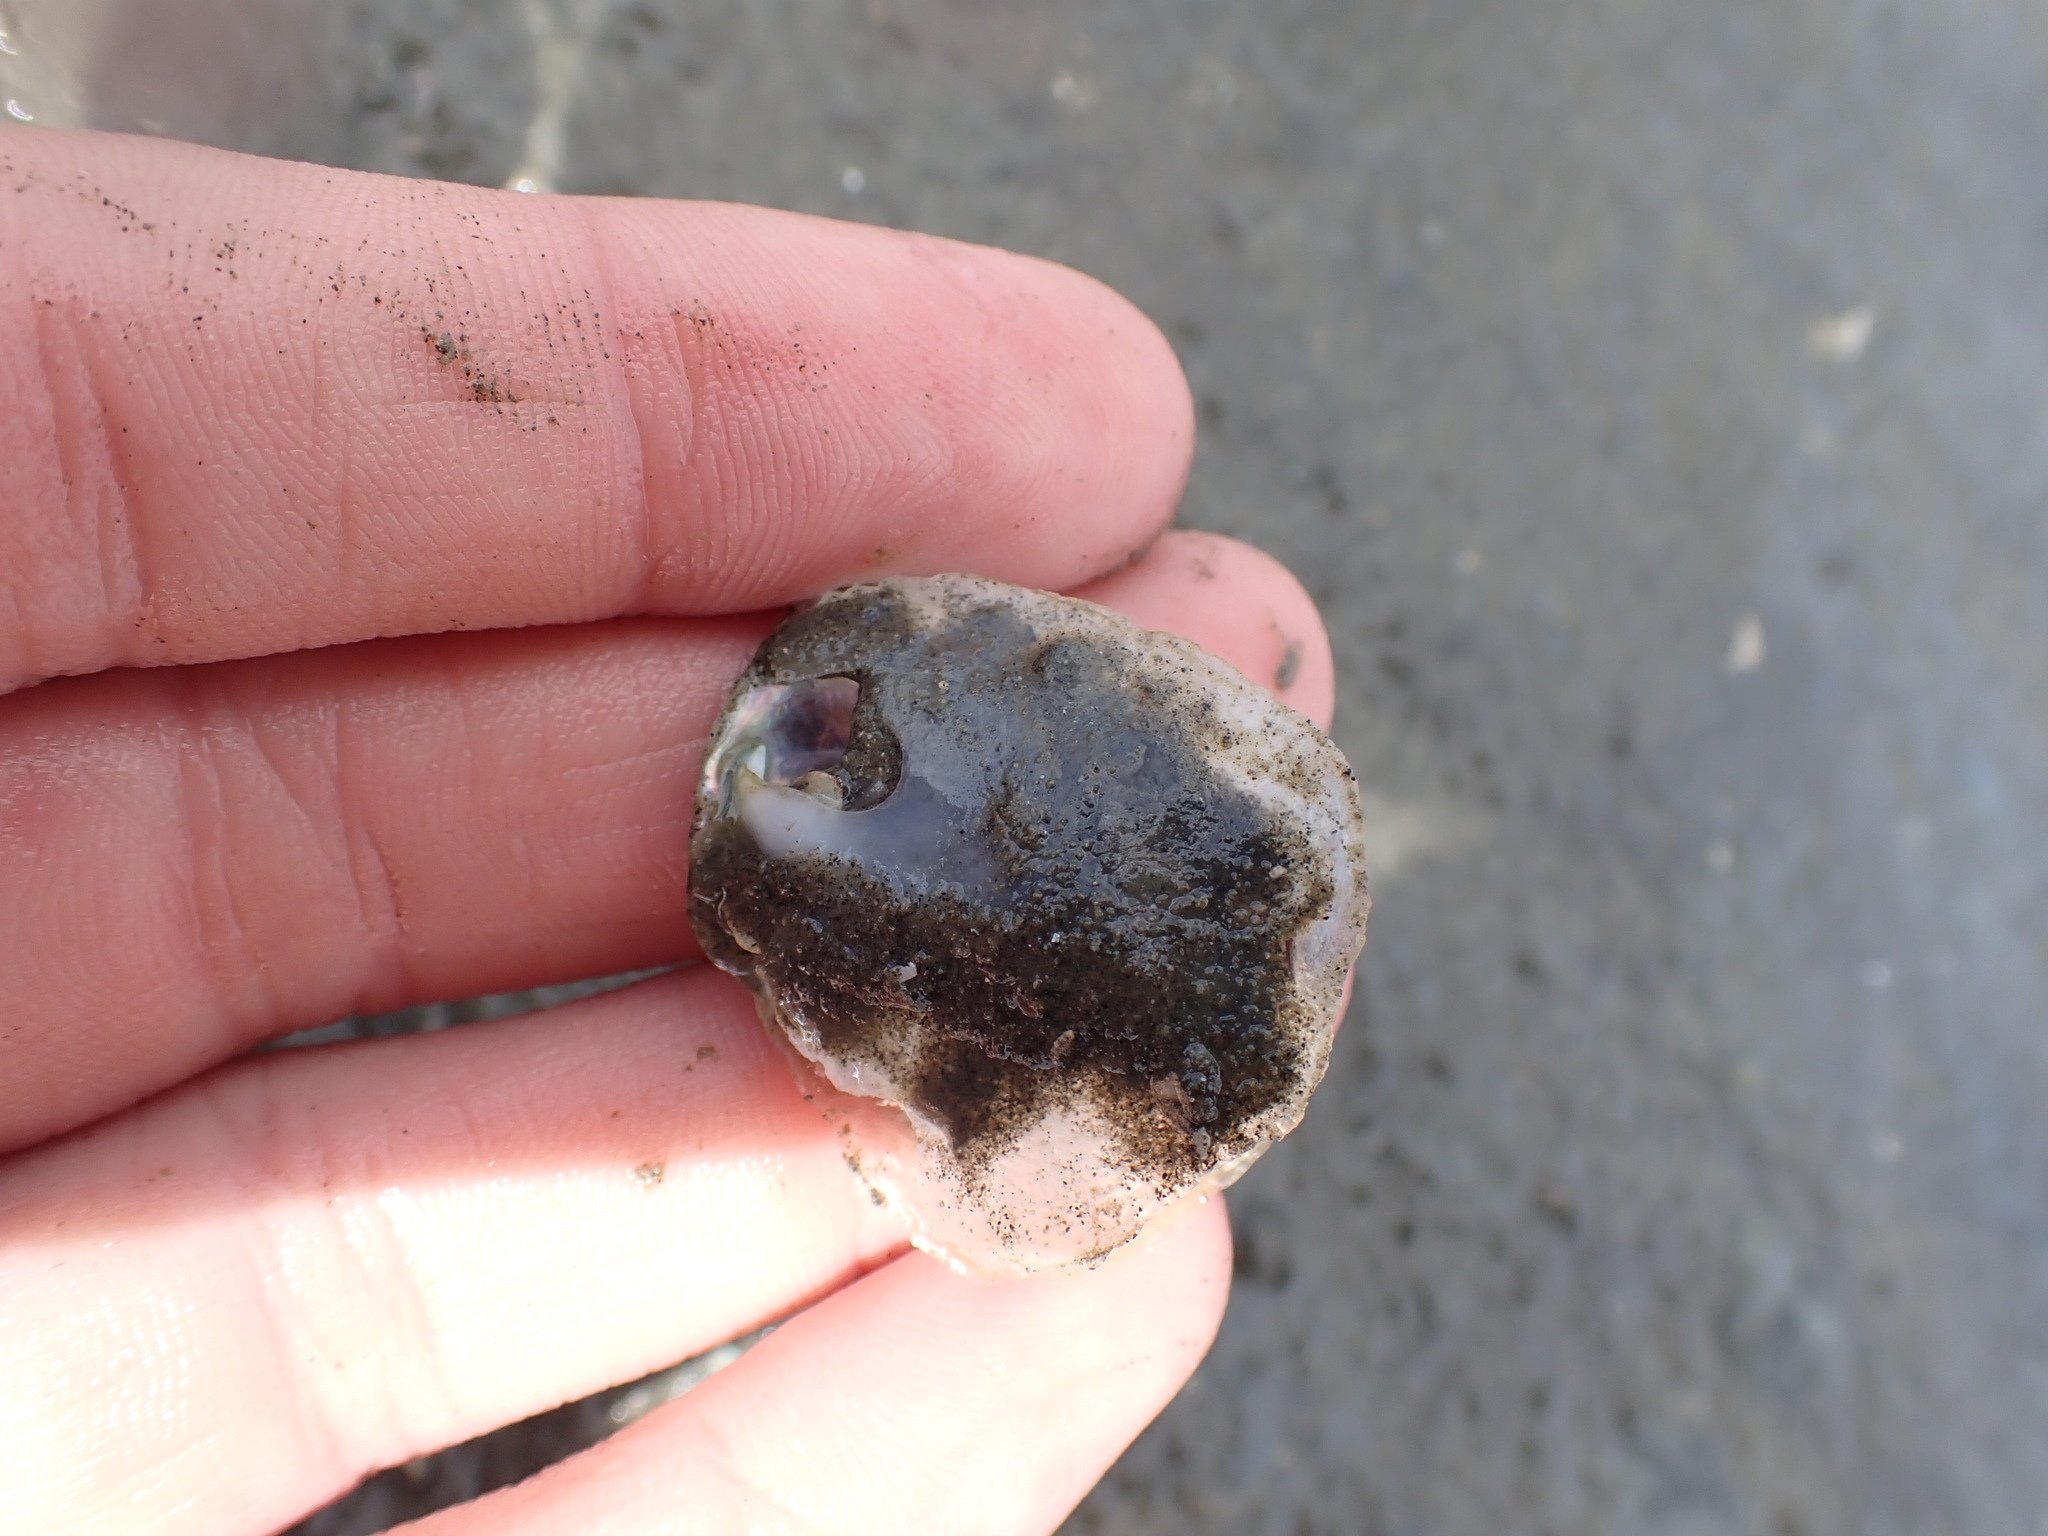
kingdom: Animalia
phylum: Mollusca
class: Bivalvia
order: Pectinida
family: Anomiidae
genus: Anomia
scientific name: Anomia trigonopsis
